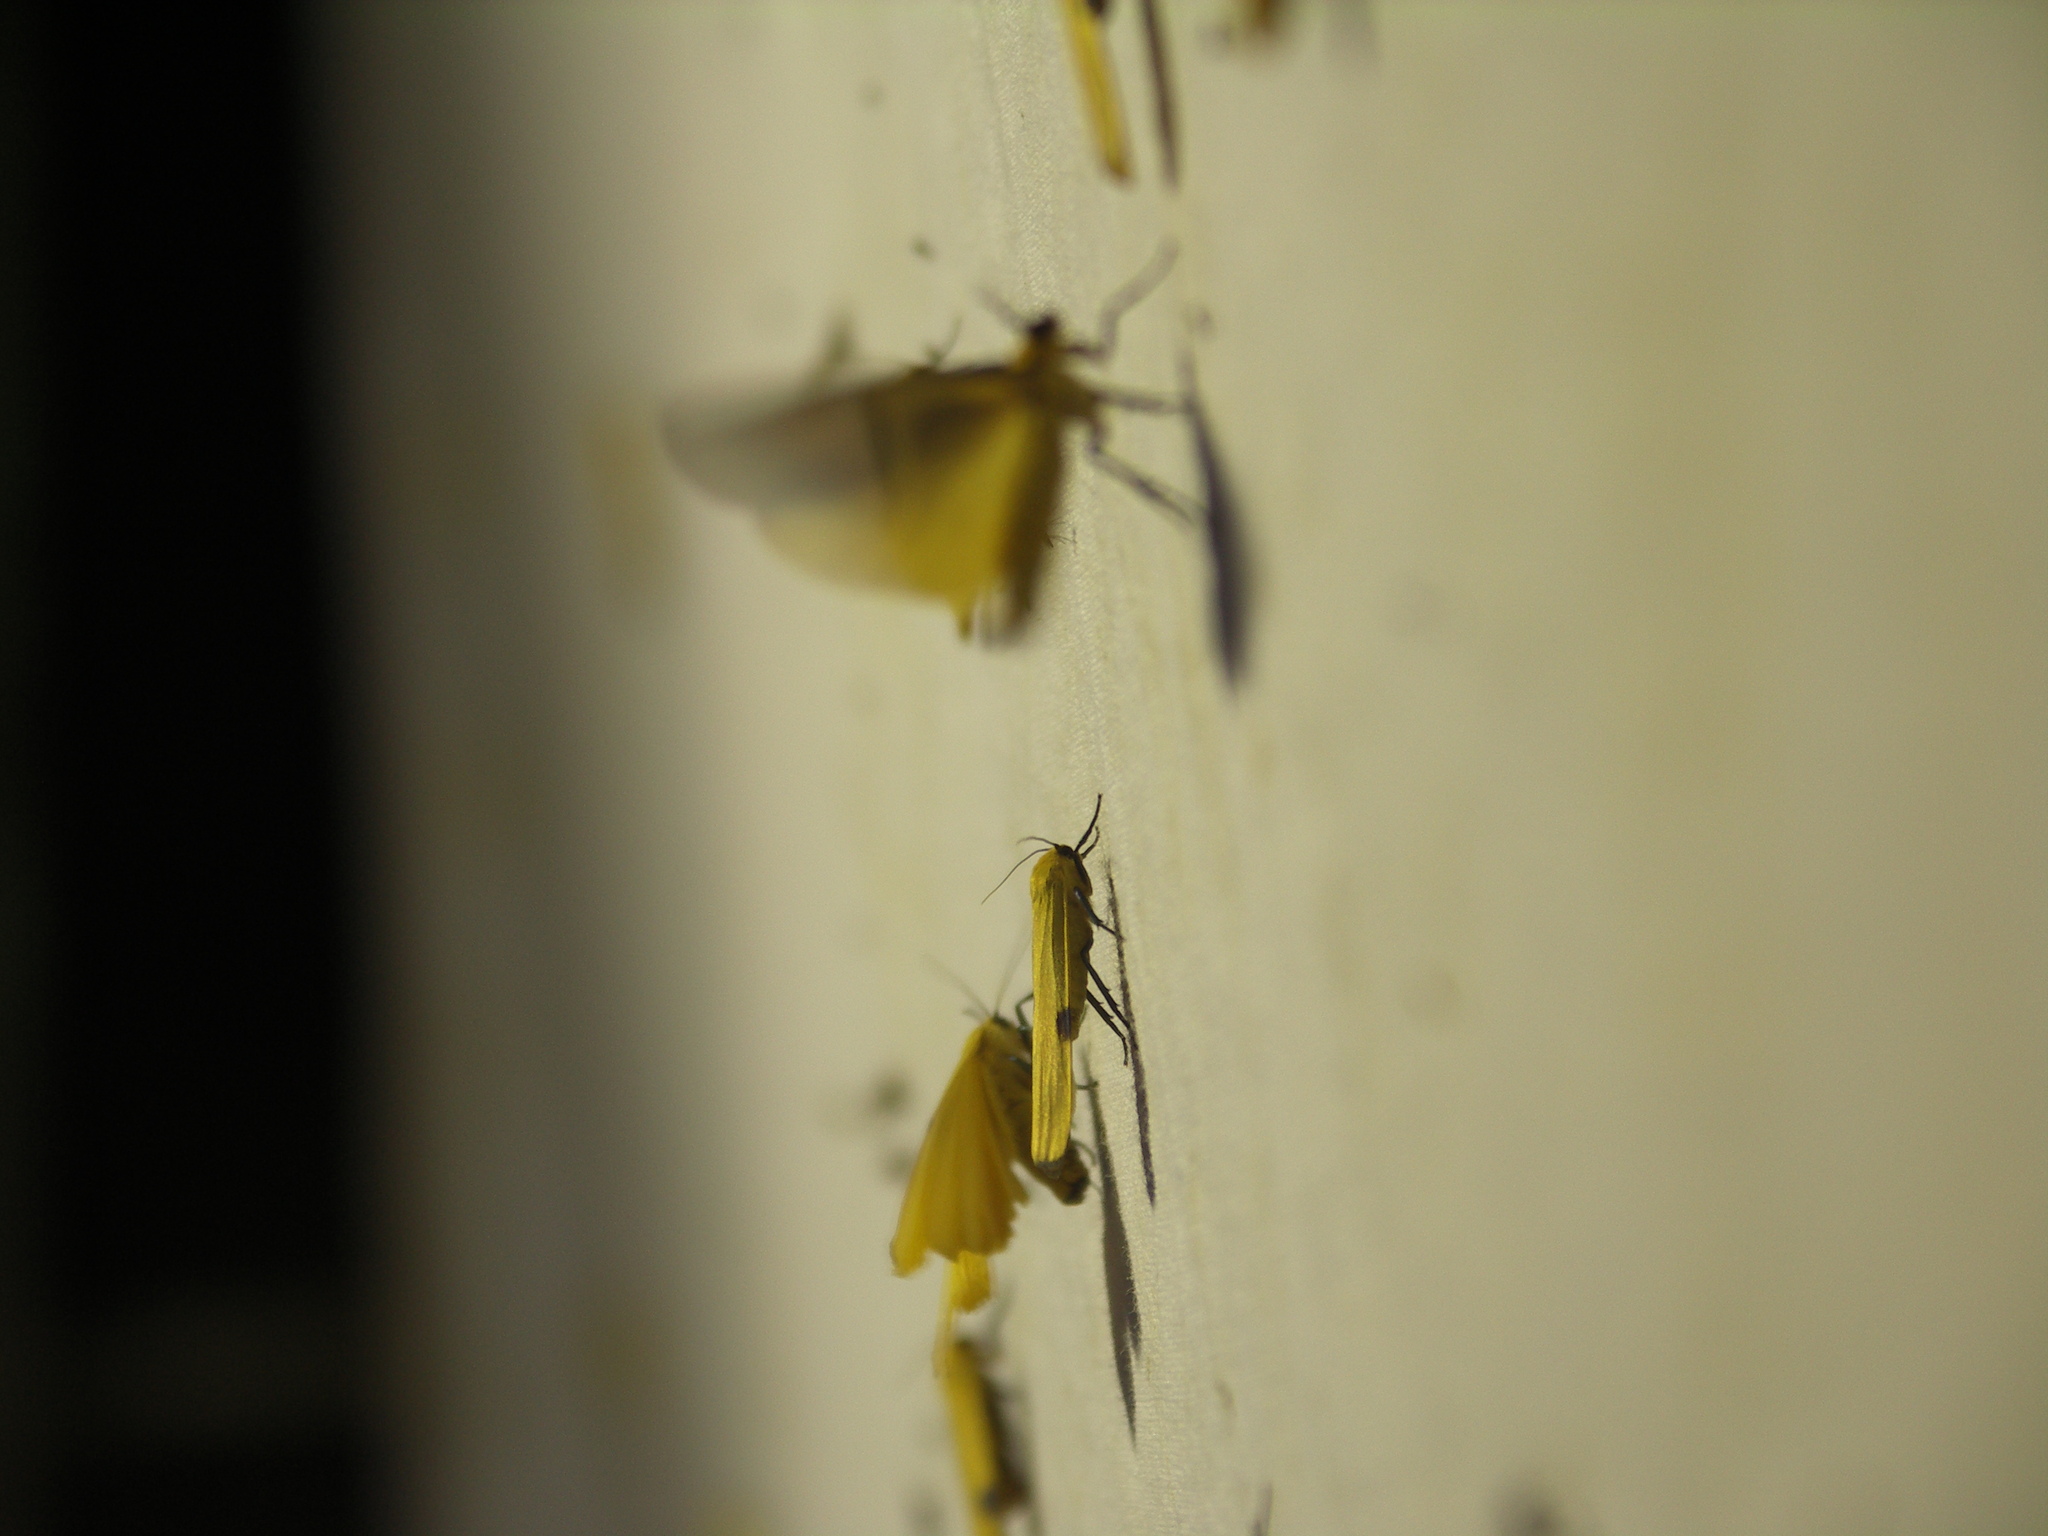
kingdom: Animalia
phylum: Arthropoda
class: Insecta
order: Lepidoptera
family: Erebidae
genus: Lithosia
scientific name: Lithosia quadra
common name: Four-spotted footman
